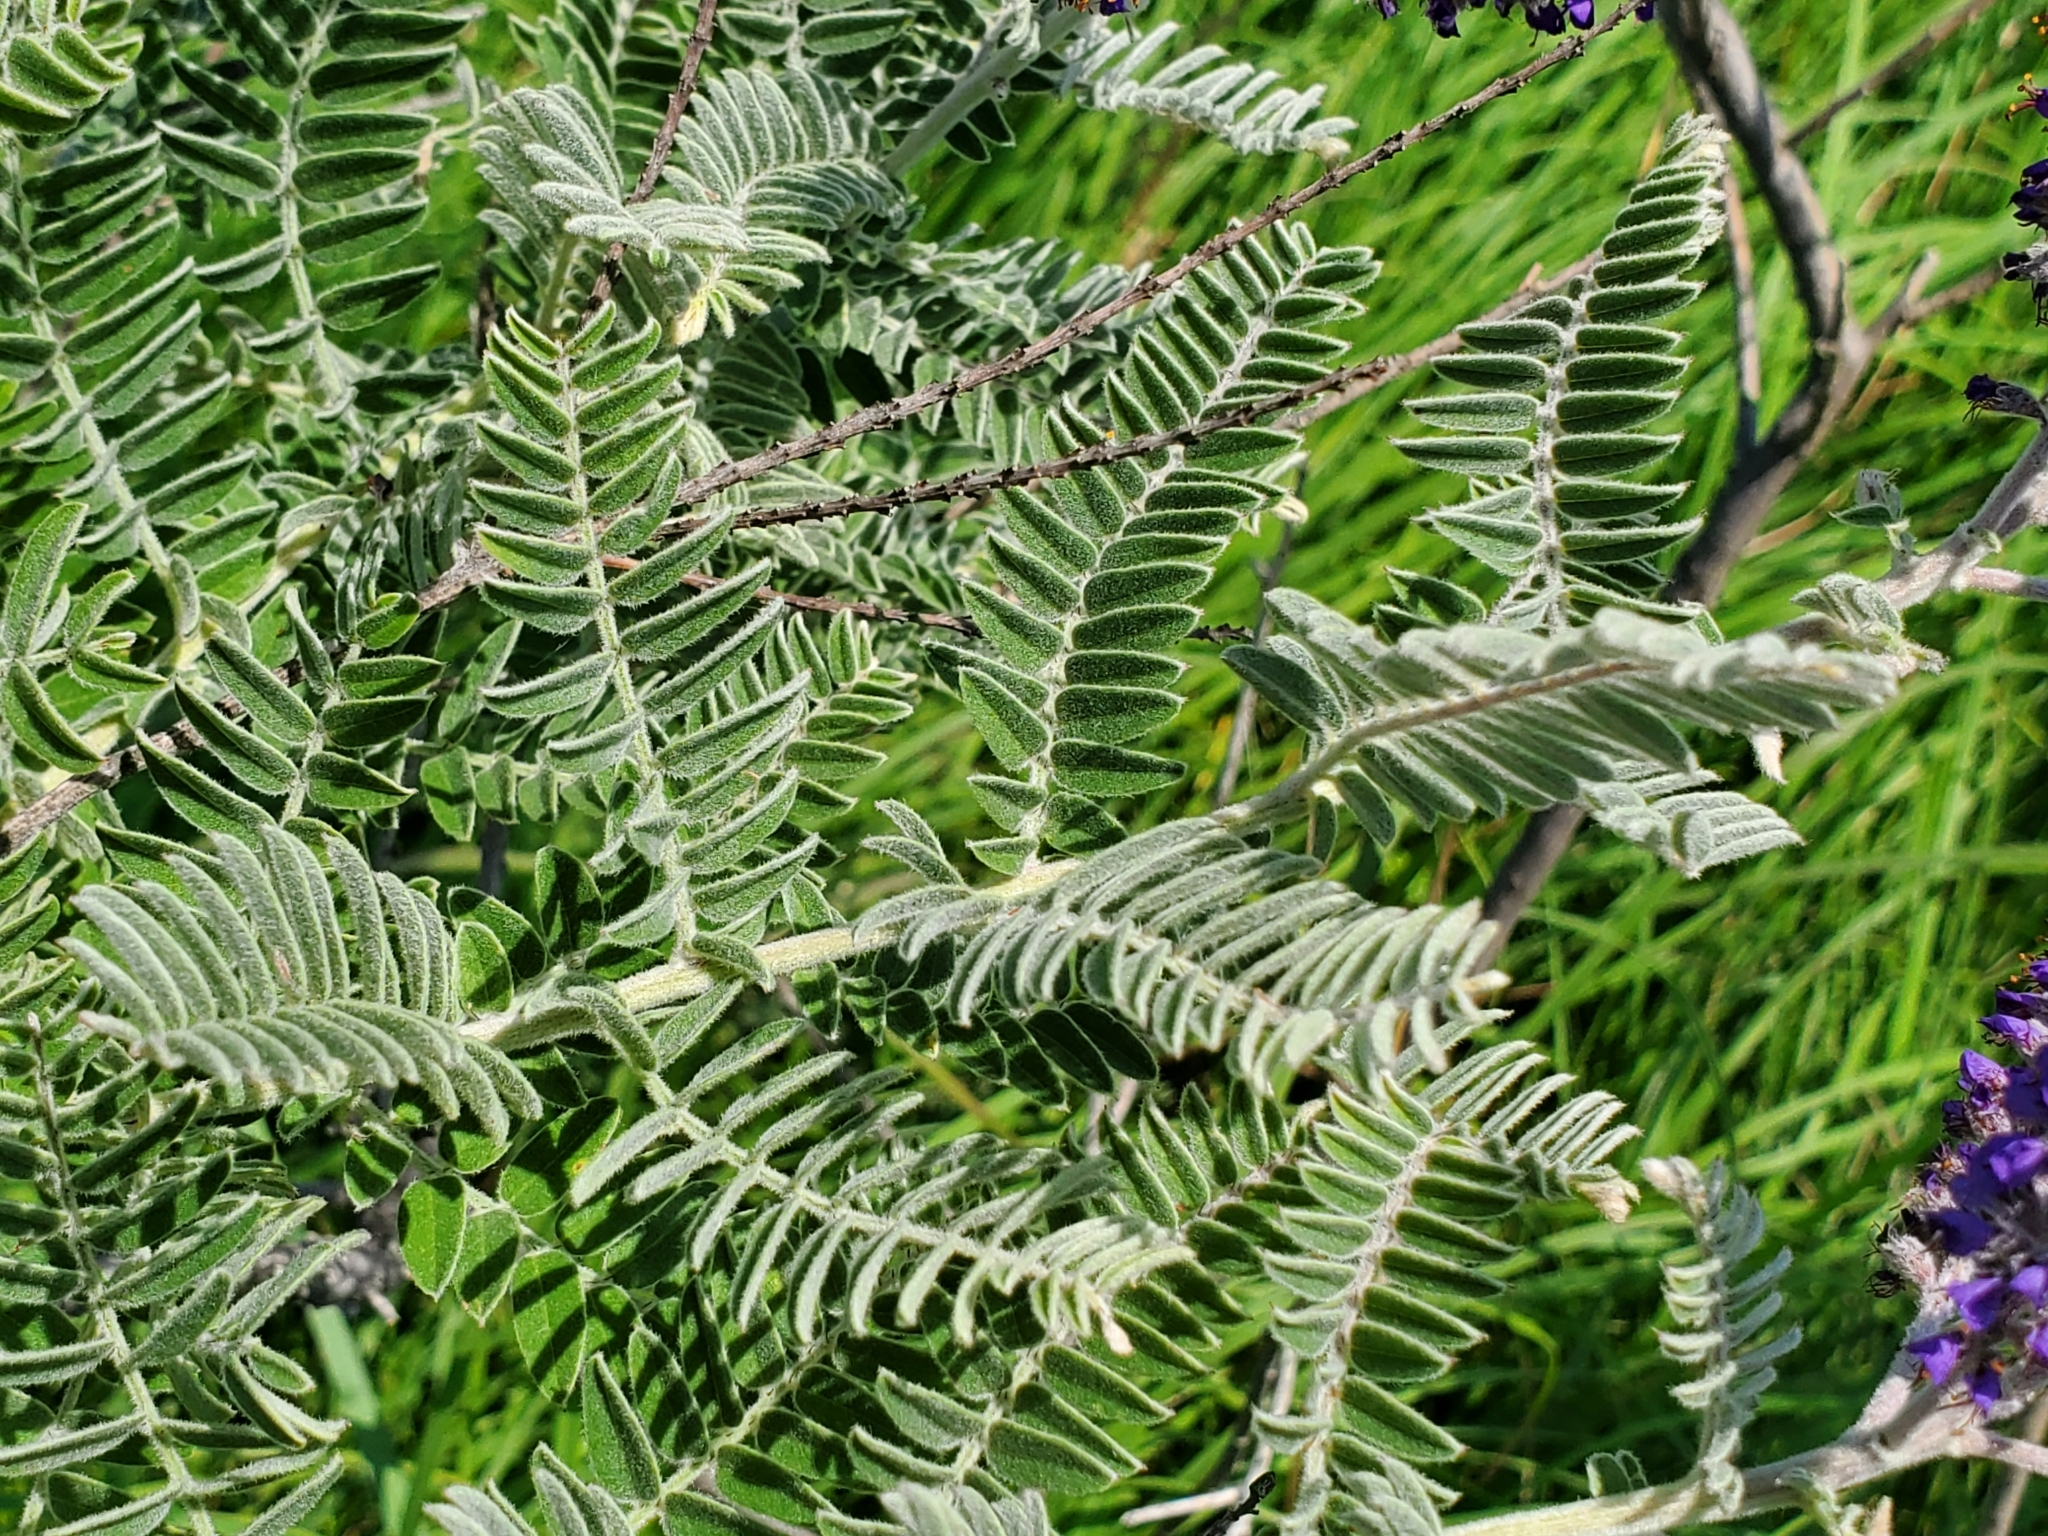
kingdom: Plantae
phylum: Tracheophyta
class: Magnoliopsida
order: Fabales
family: Fabaceae
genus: Amorpha
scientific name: Amorpha canescens
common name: Leadplant
